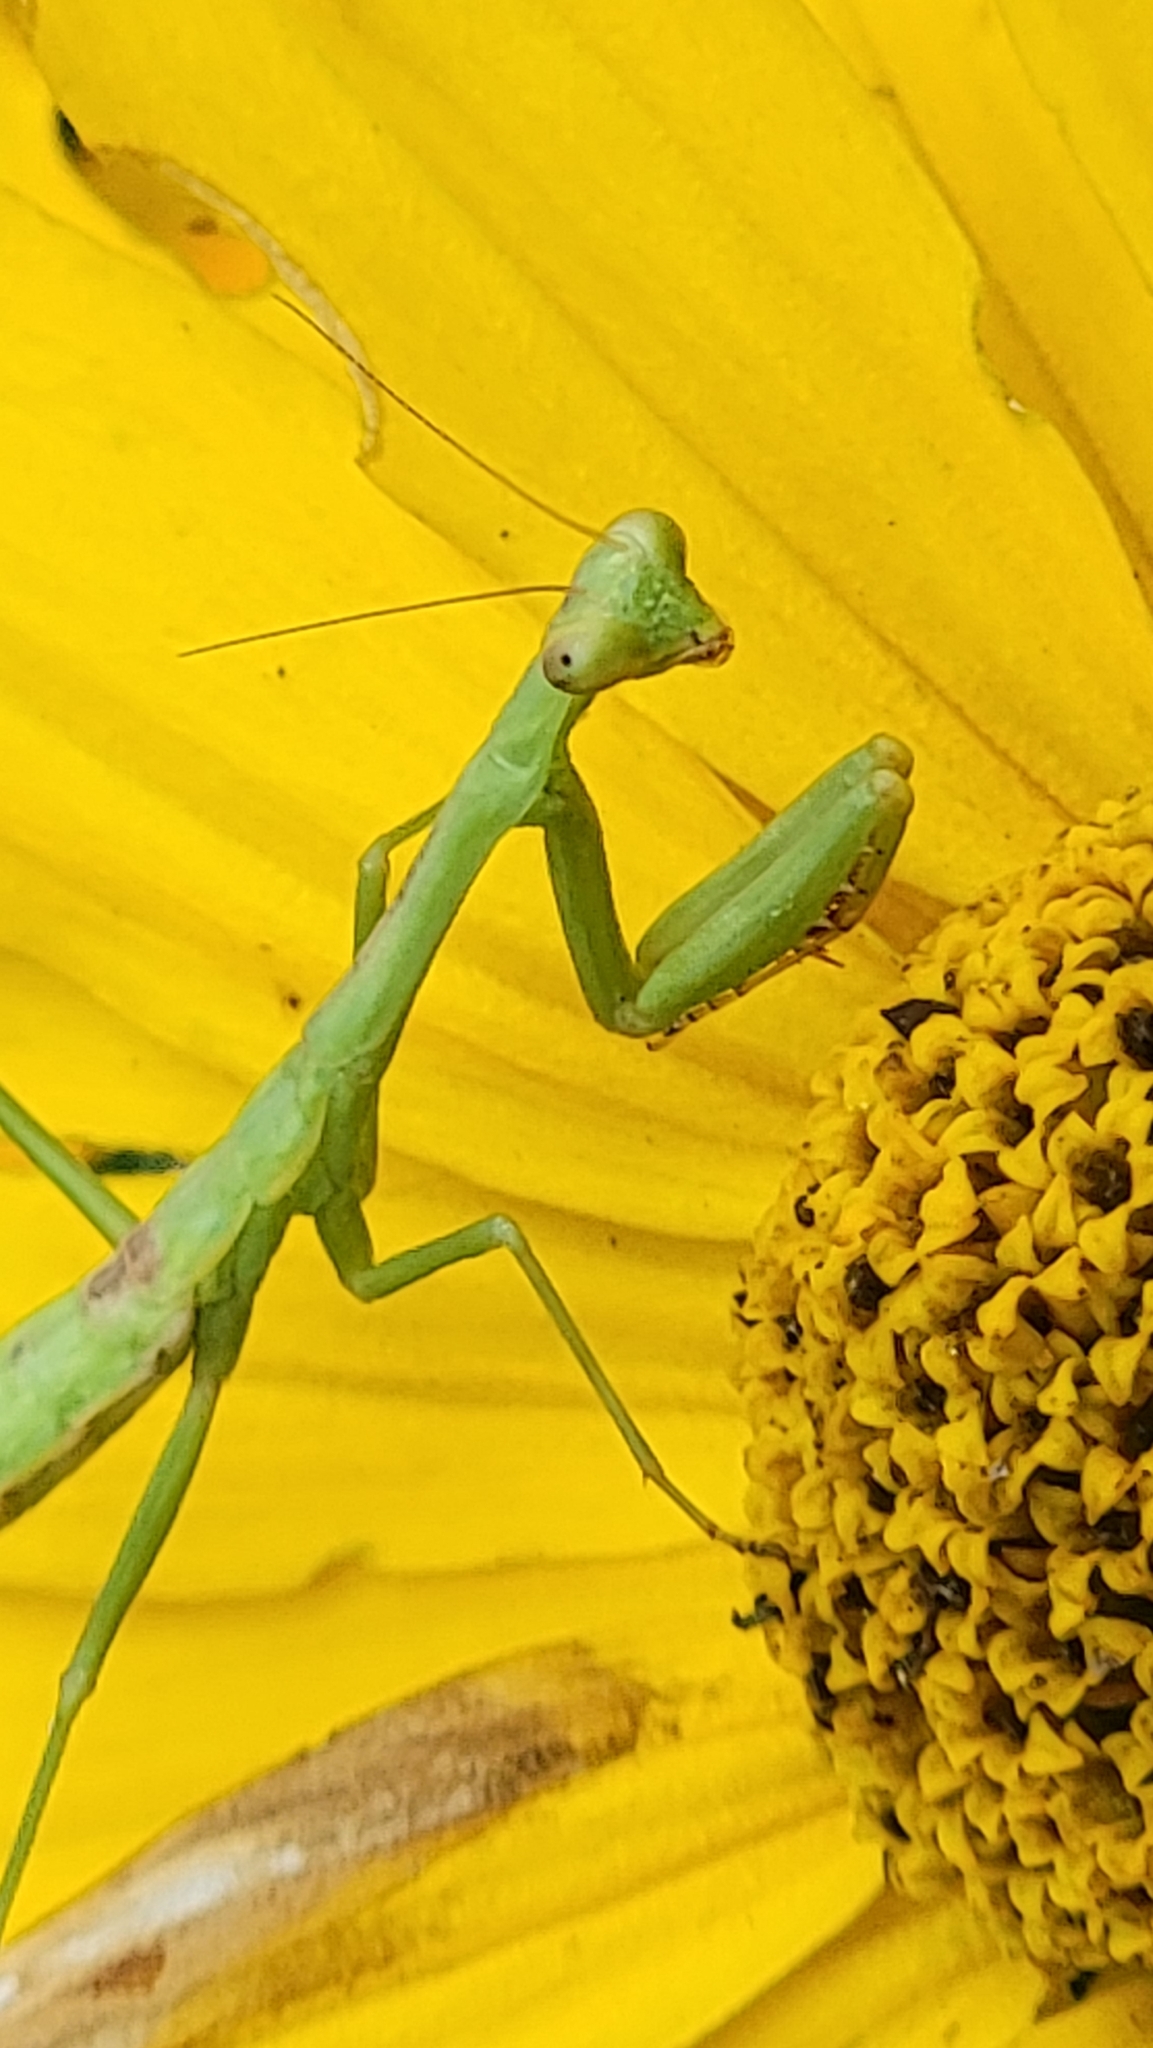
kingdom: Animalia
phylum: Arthropoda
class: Insecta
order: Mantodea
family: Mantidae
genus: Stagmomantis
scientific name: Stagmomantis carolina
